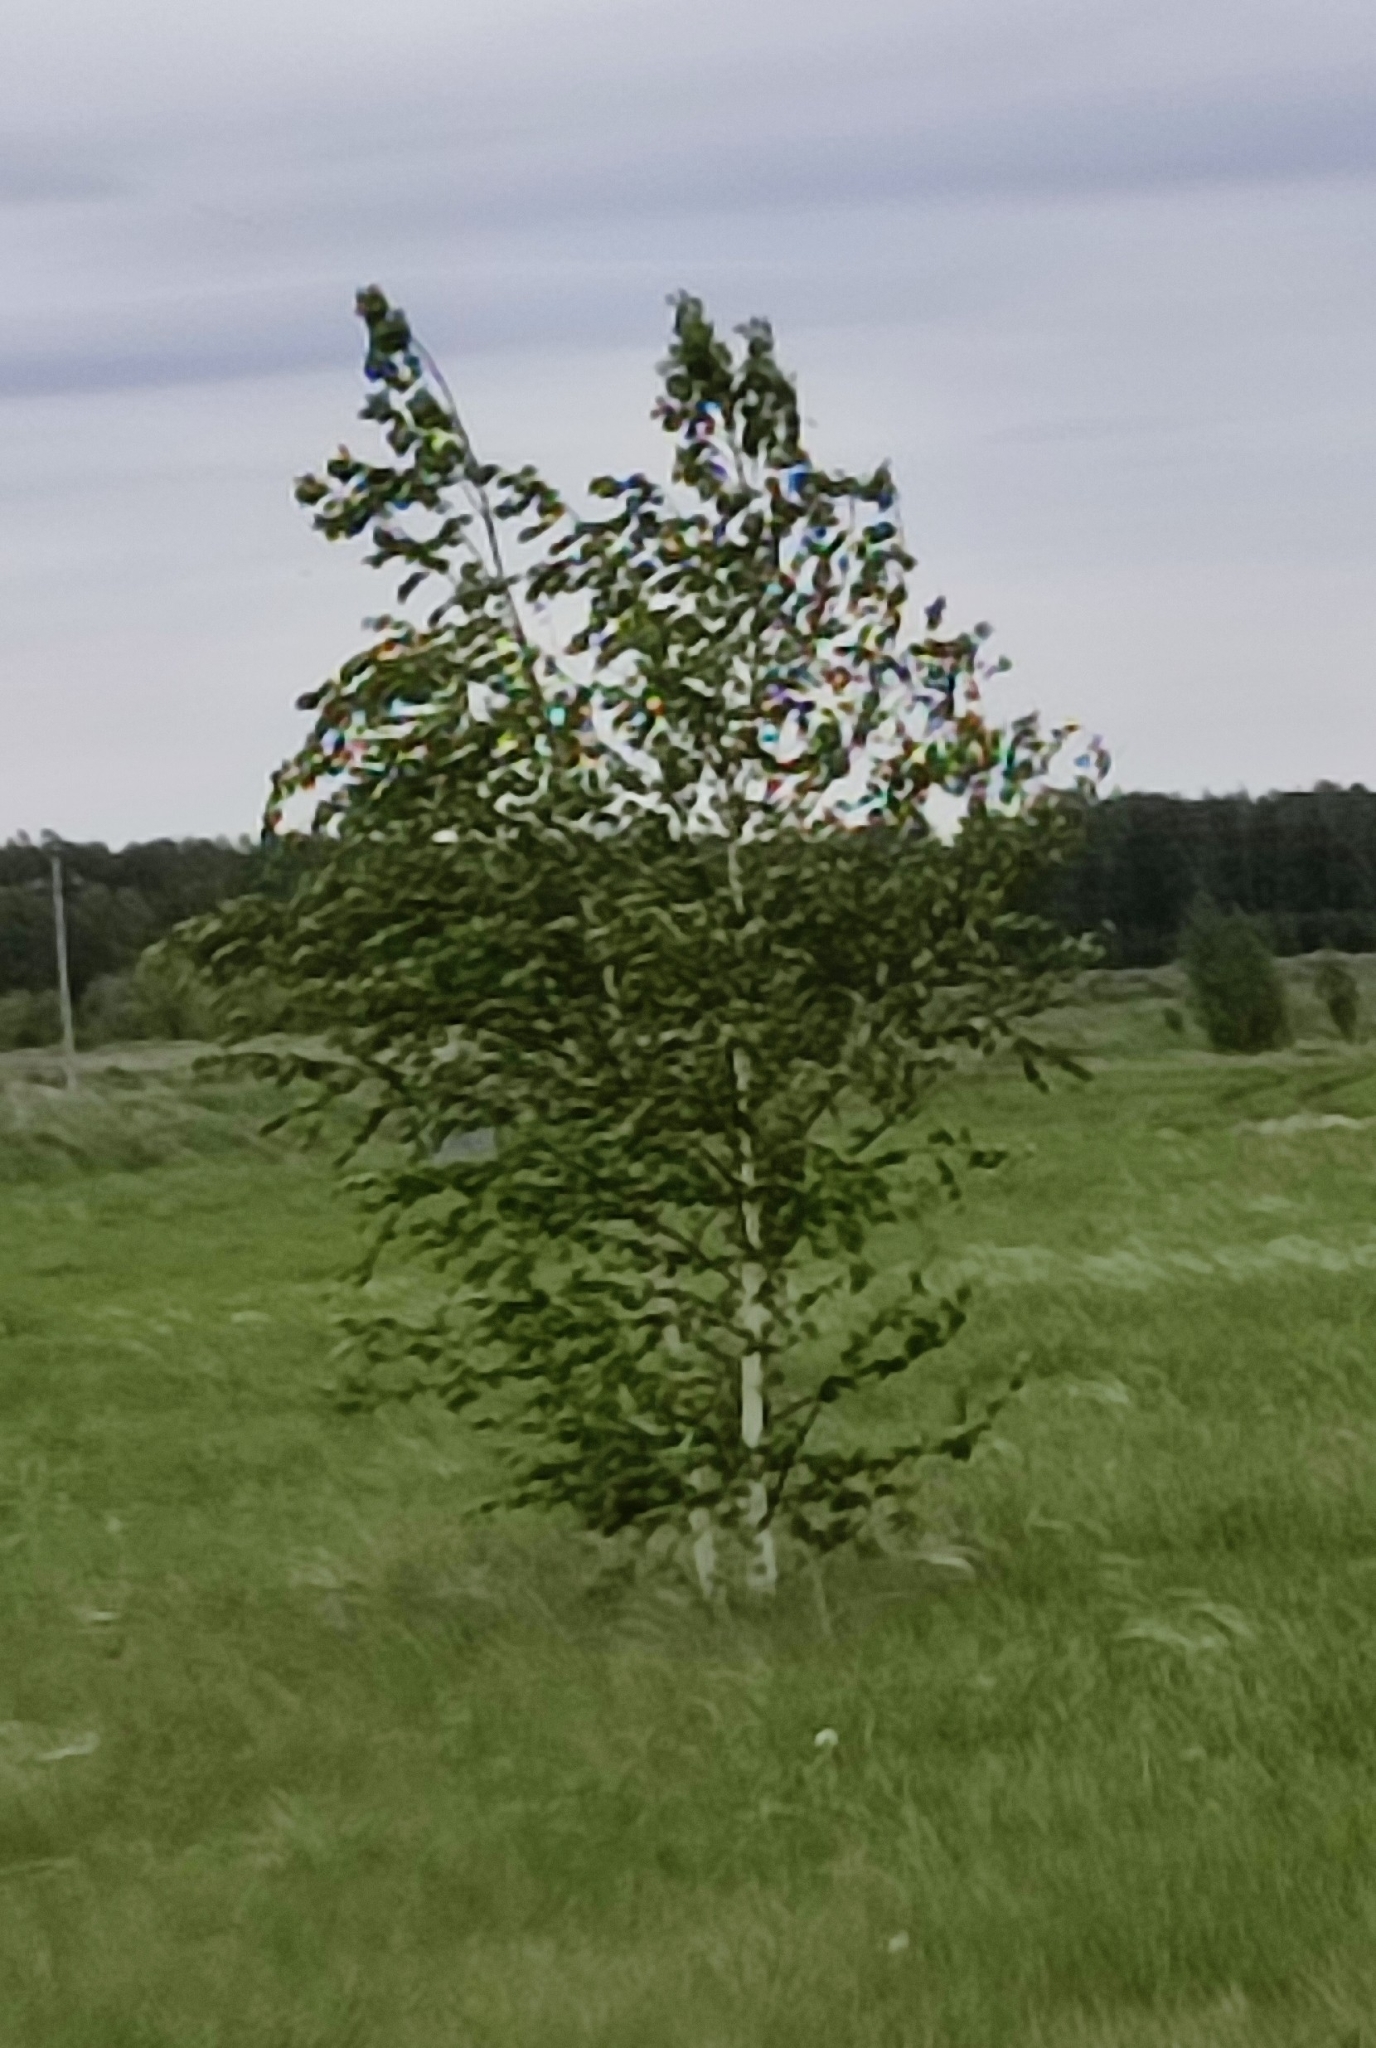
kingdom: Plantae
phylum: Tracheophyta
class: Magnoliopsida
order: Fagales
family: Betulaceae
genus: Betula
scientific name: Betula pendula
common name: Silver birch
